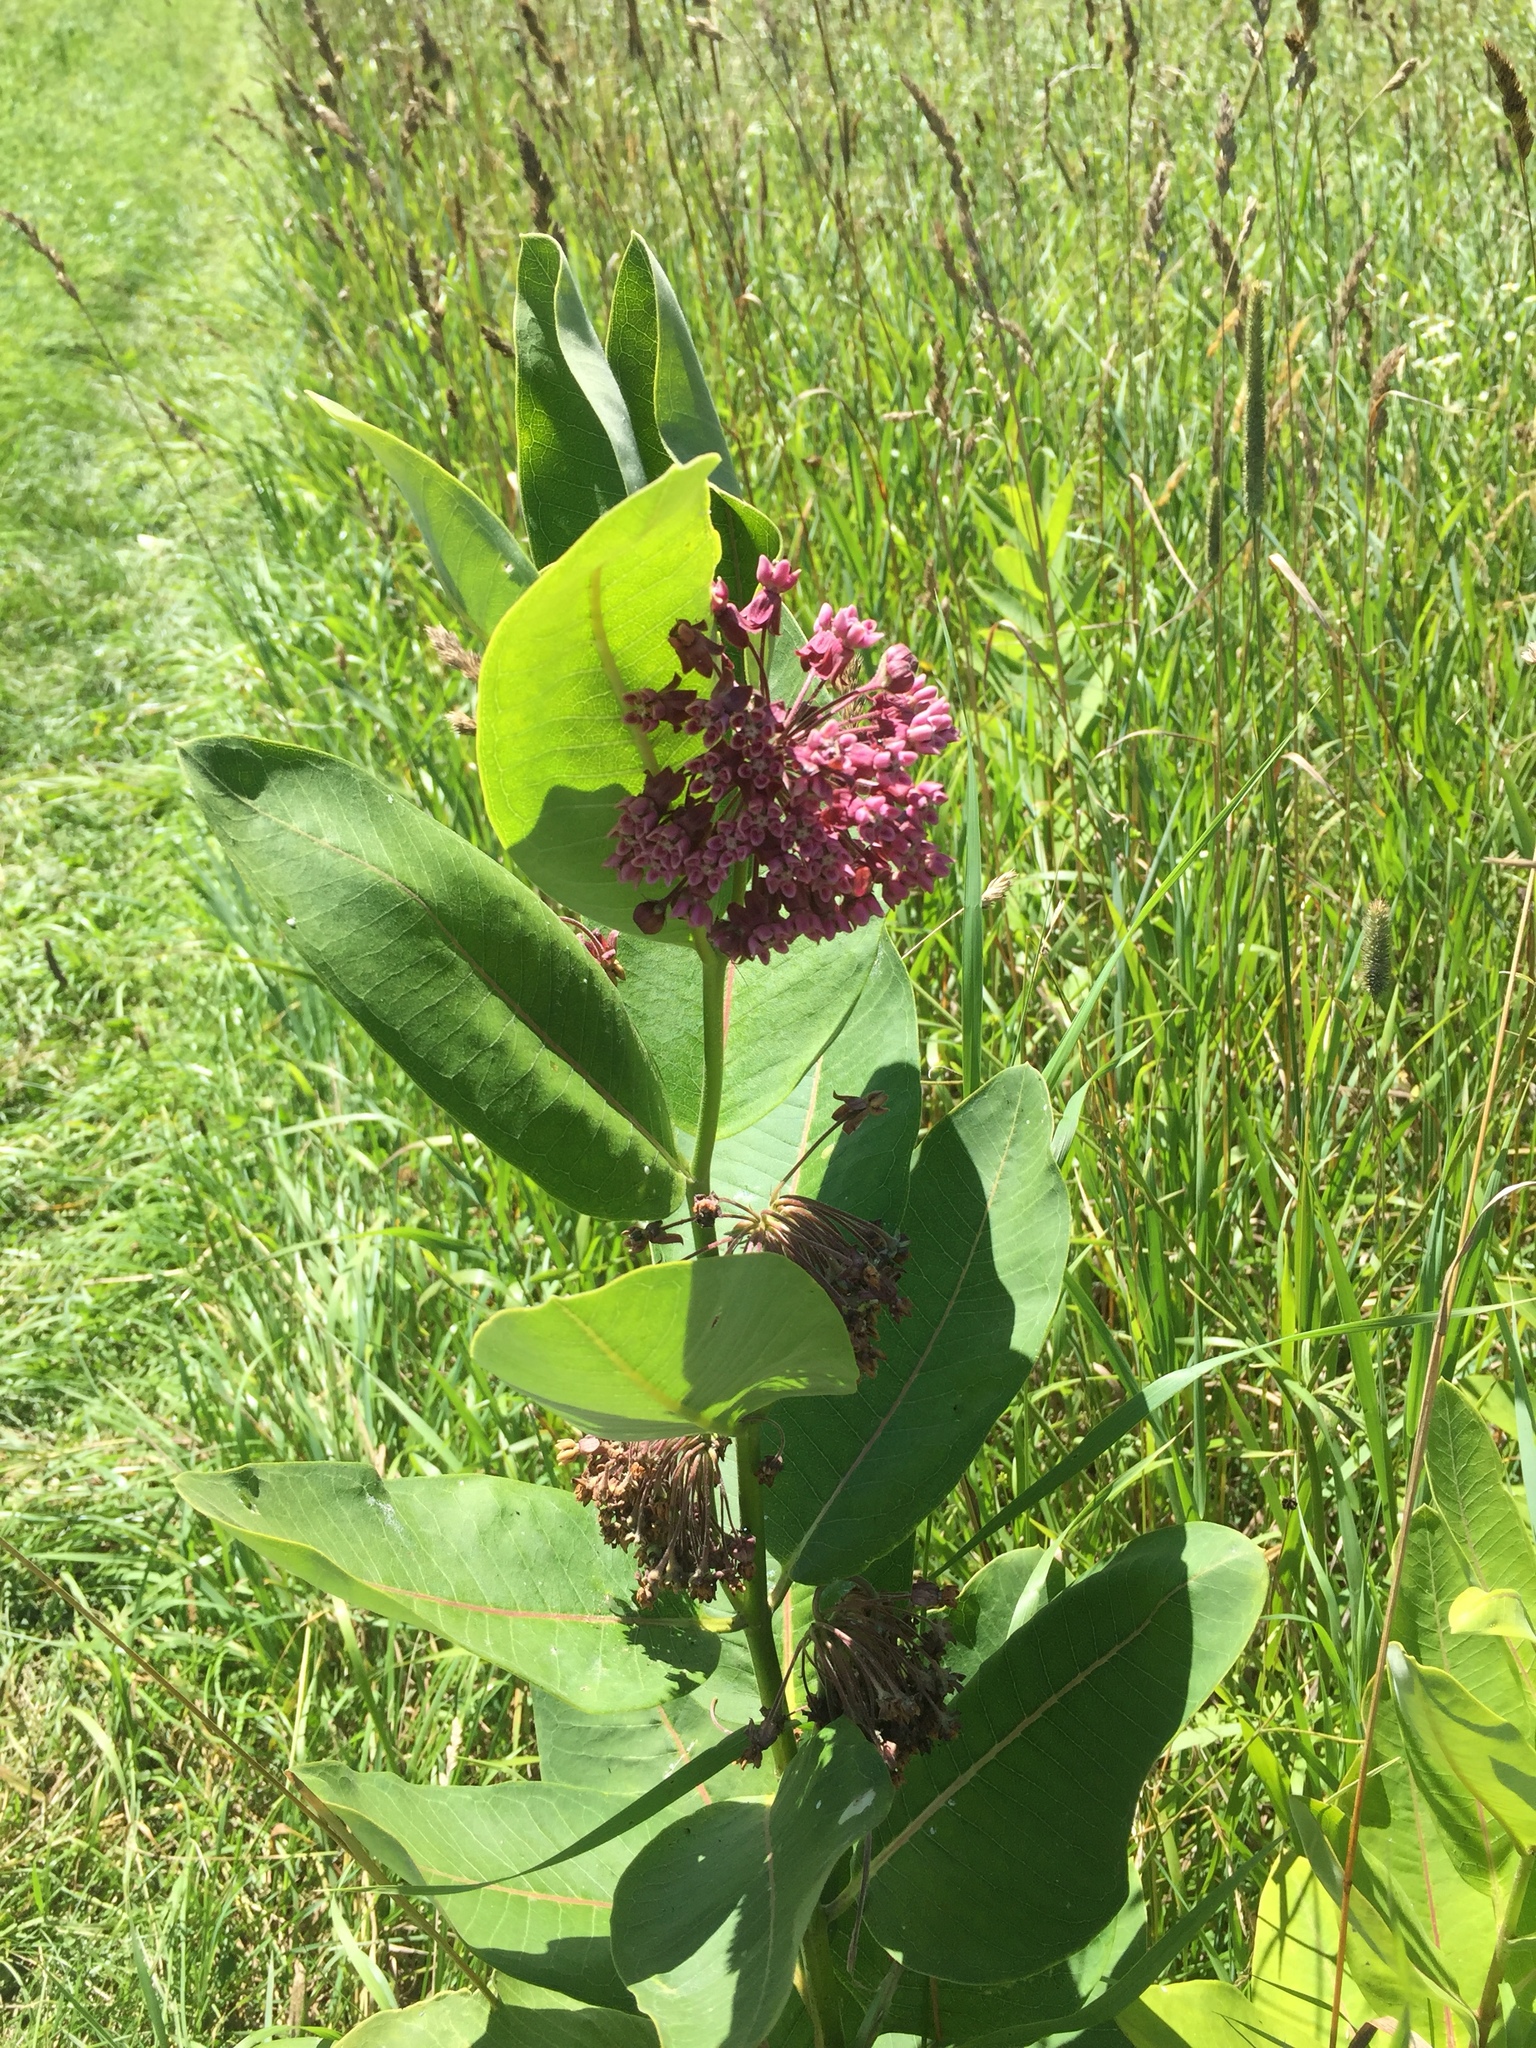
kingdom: Plantae
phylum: Tracheophyta
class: Magnoliopsida
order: Gentianales
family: Apocynaceae
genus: Asclepias
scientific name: Asclepias syriaca
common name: Common milkweed
